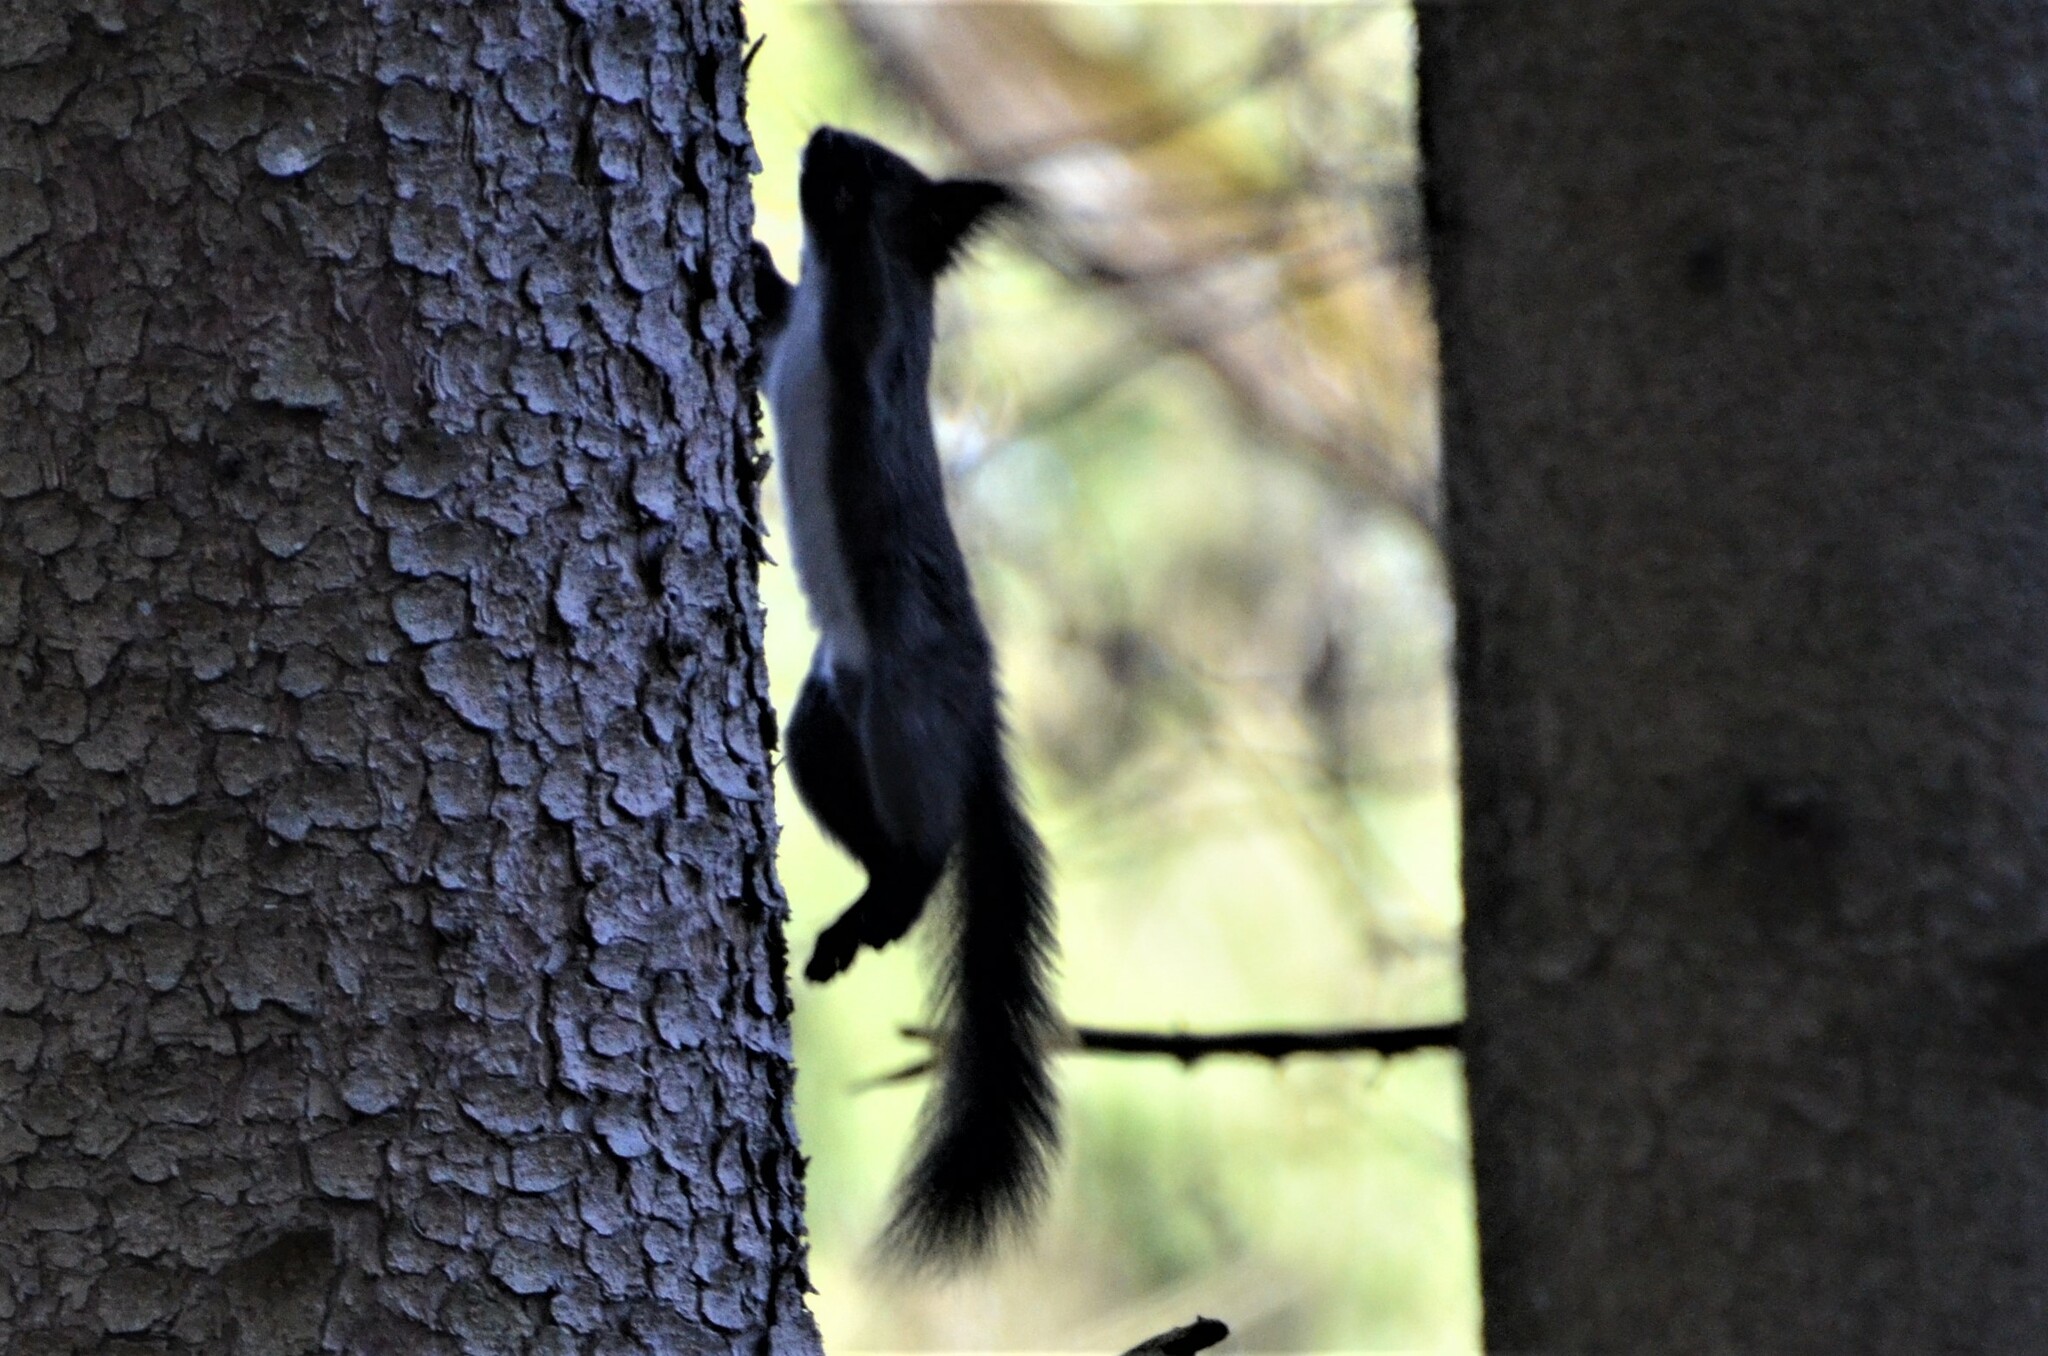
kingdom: Animalia
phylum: Chordata
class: Mammalia
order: Rodentia
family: Sciuridae
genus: Sciurus
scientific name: Sciurus vulgaris
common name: Eurasian red squirrel
